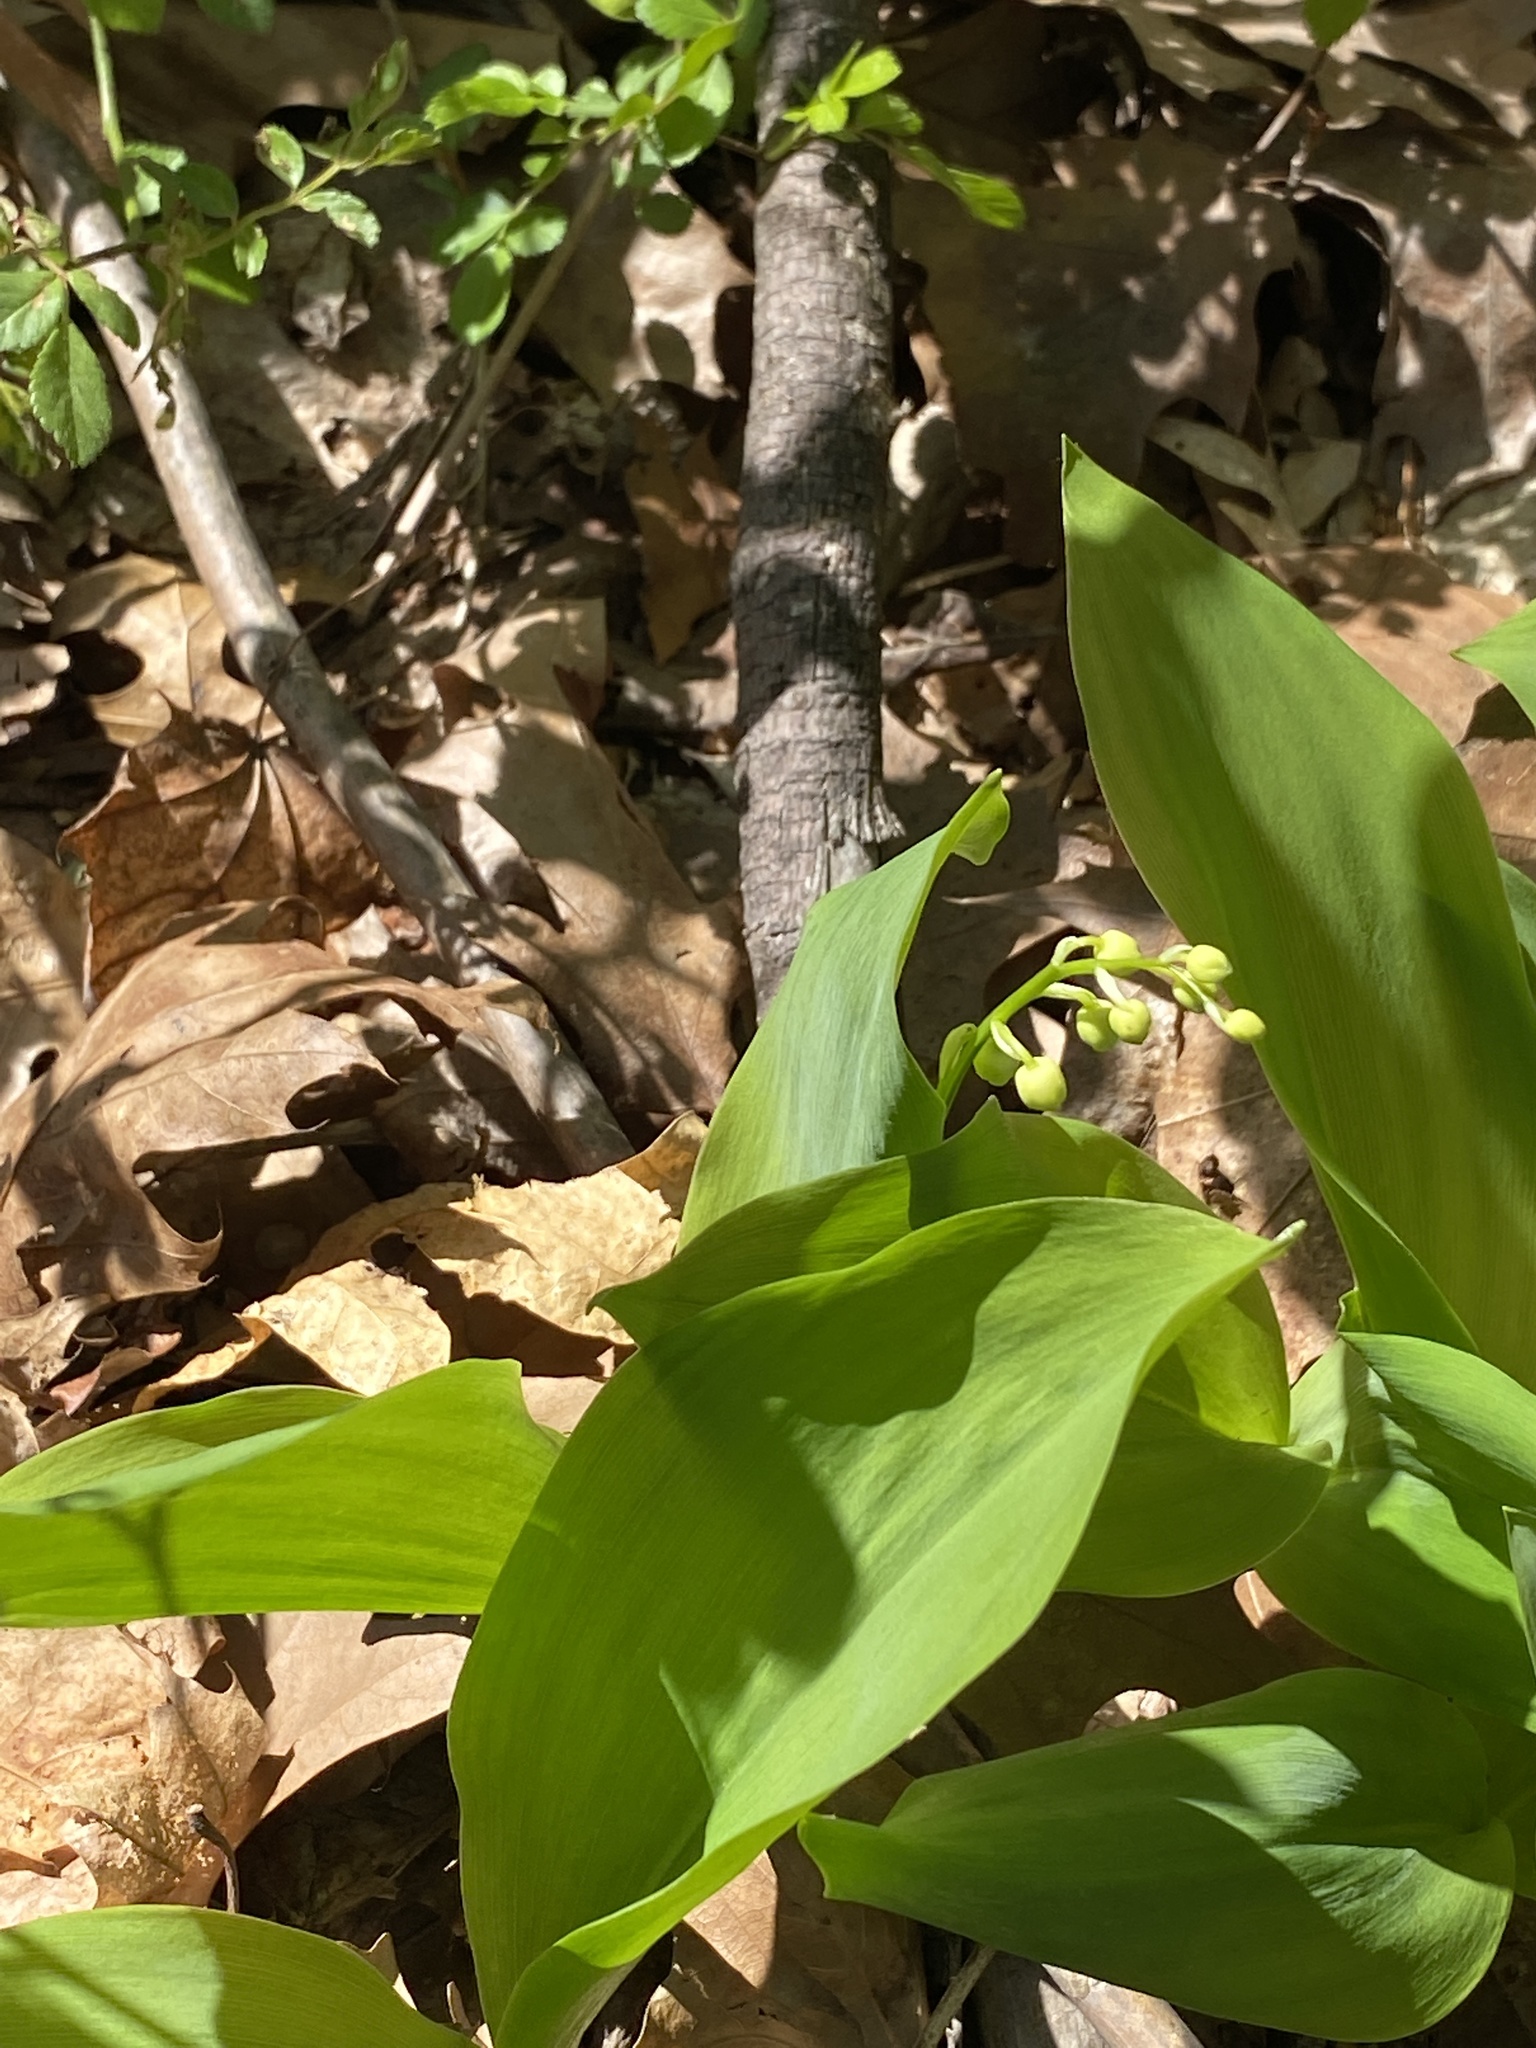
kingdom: Plantae
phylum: Tracheophyta
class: Liliopsida
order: Asparagales
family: Asparagaceae
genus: Convallaria
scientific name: Convallaria majalis
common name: Lily-of-the-valley
